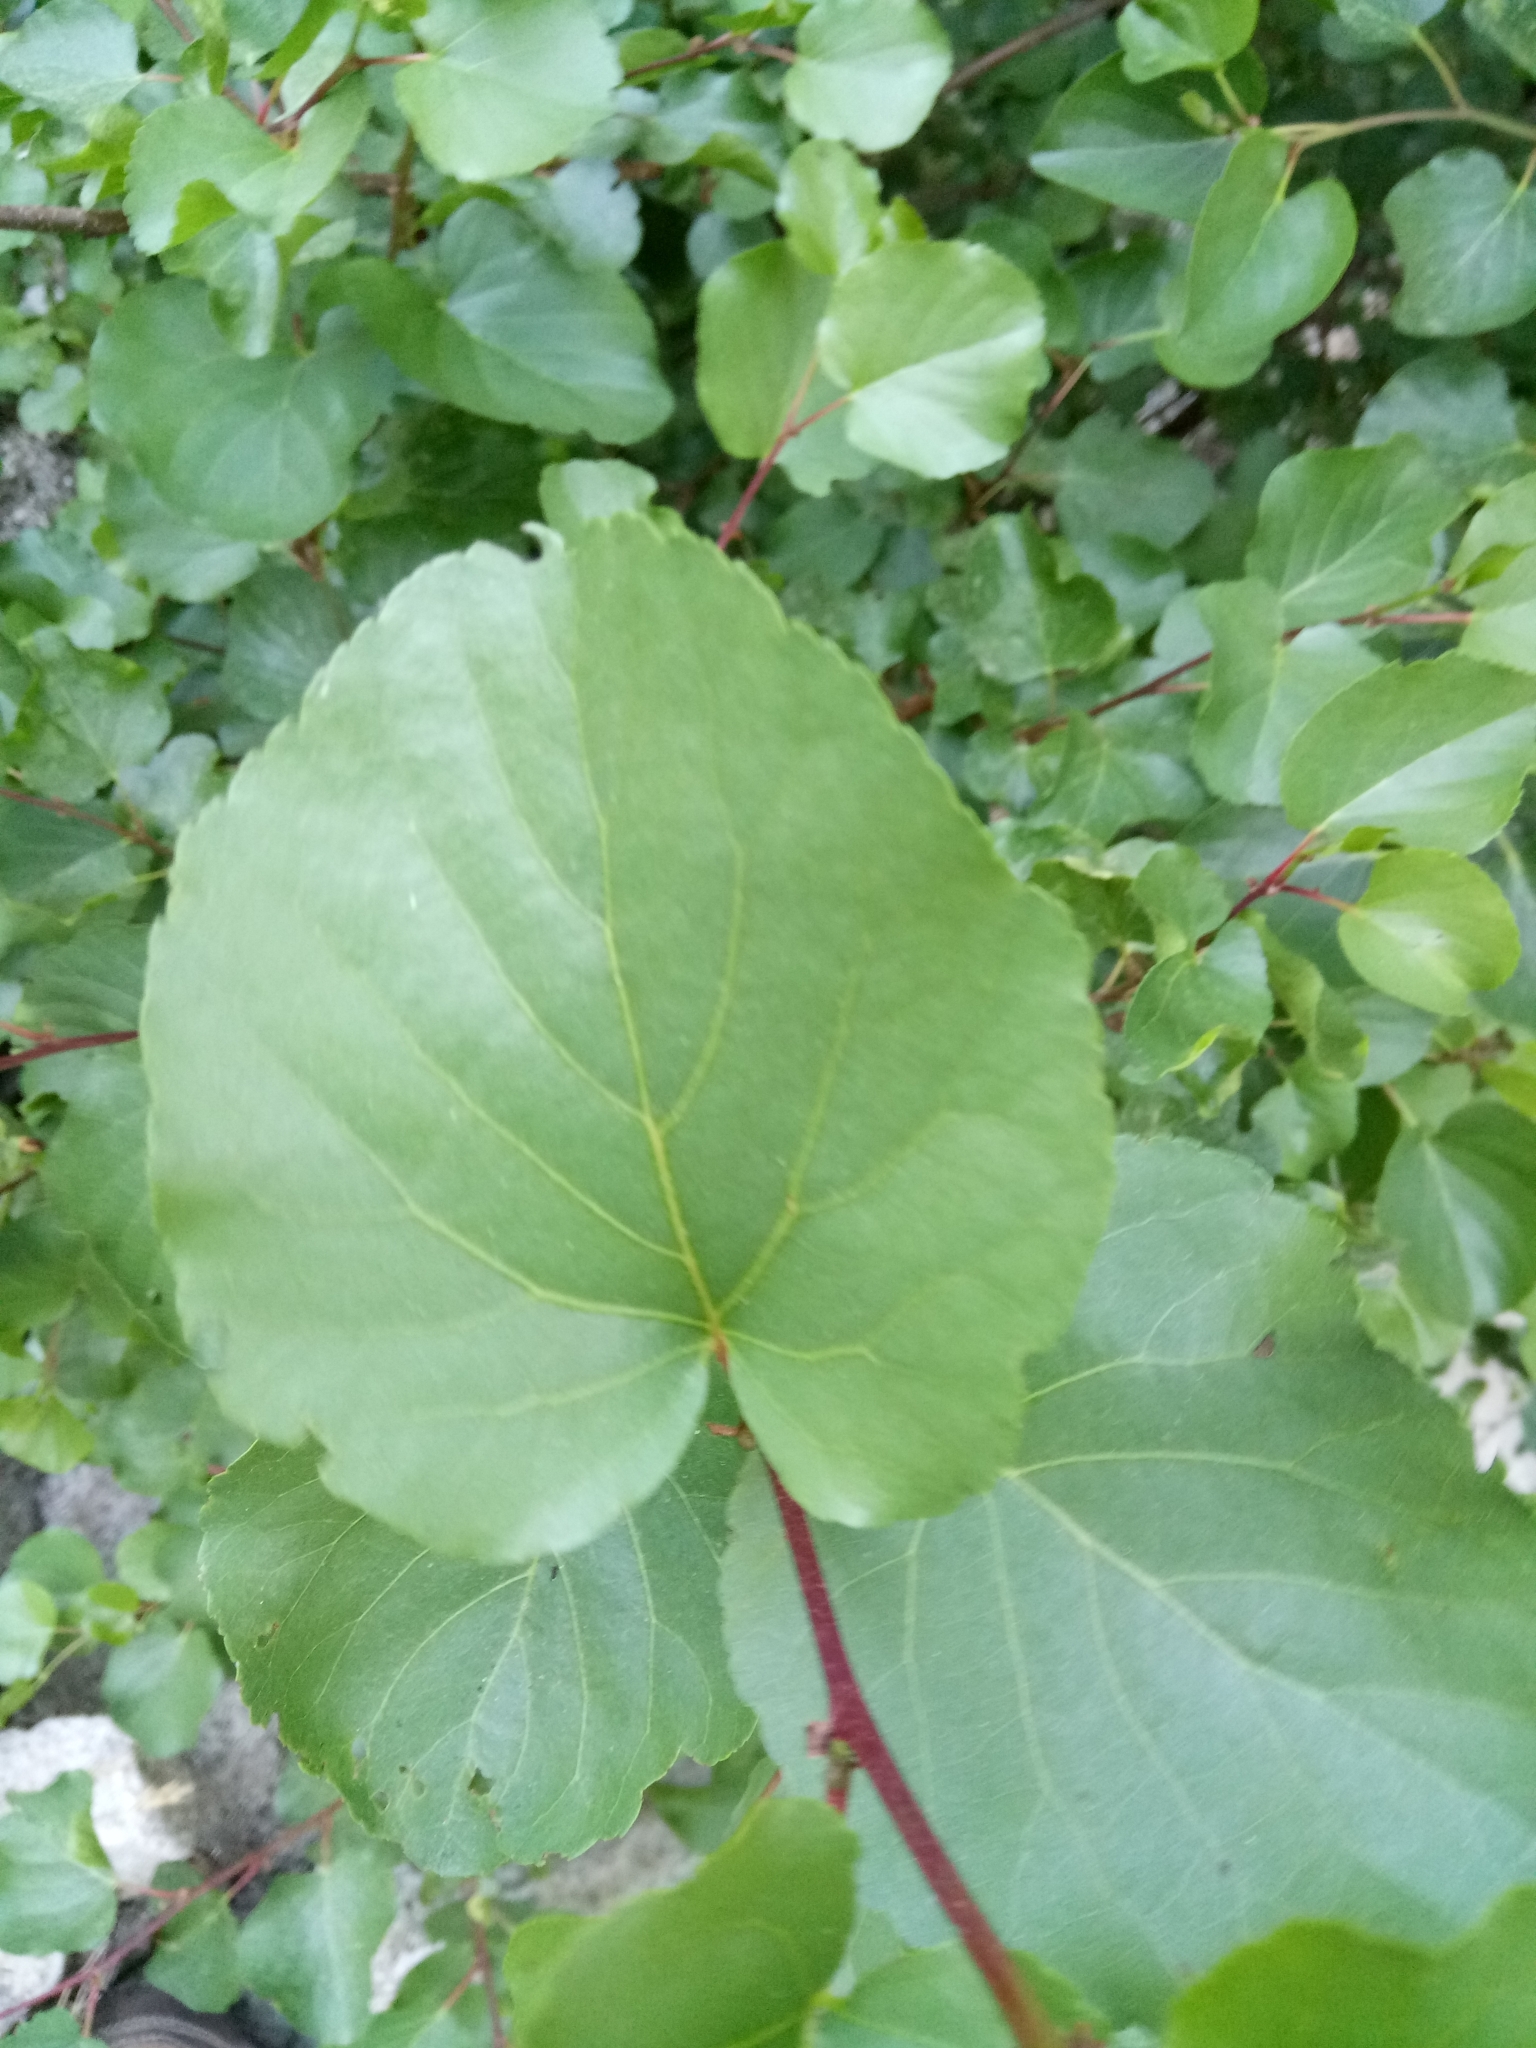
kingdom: Plantae
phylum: Tracheophyta
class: Magnoliopsida
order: Fagales
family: Betulaceae
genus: Alnus
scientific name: Alnus cordata
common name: Italian alder
